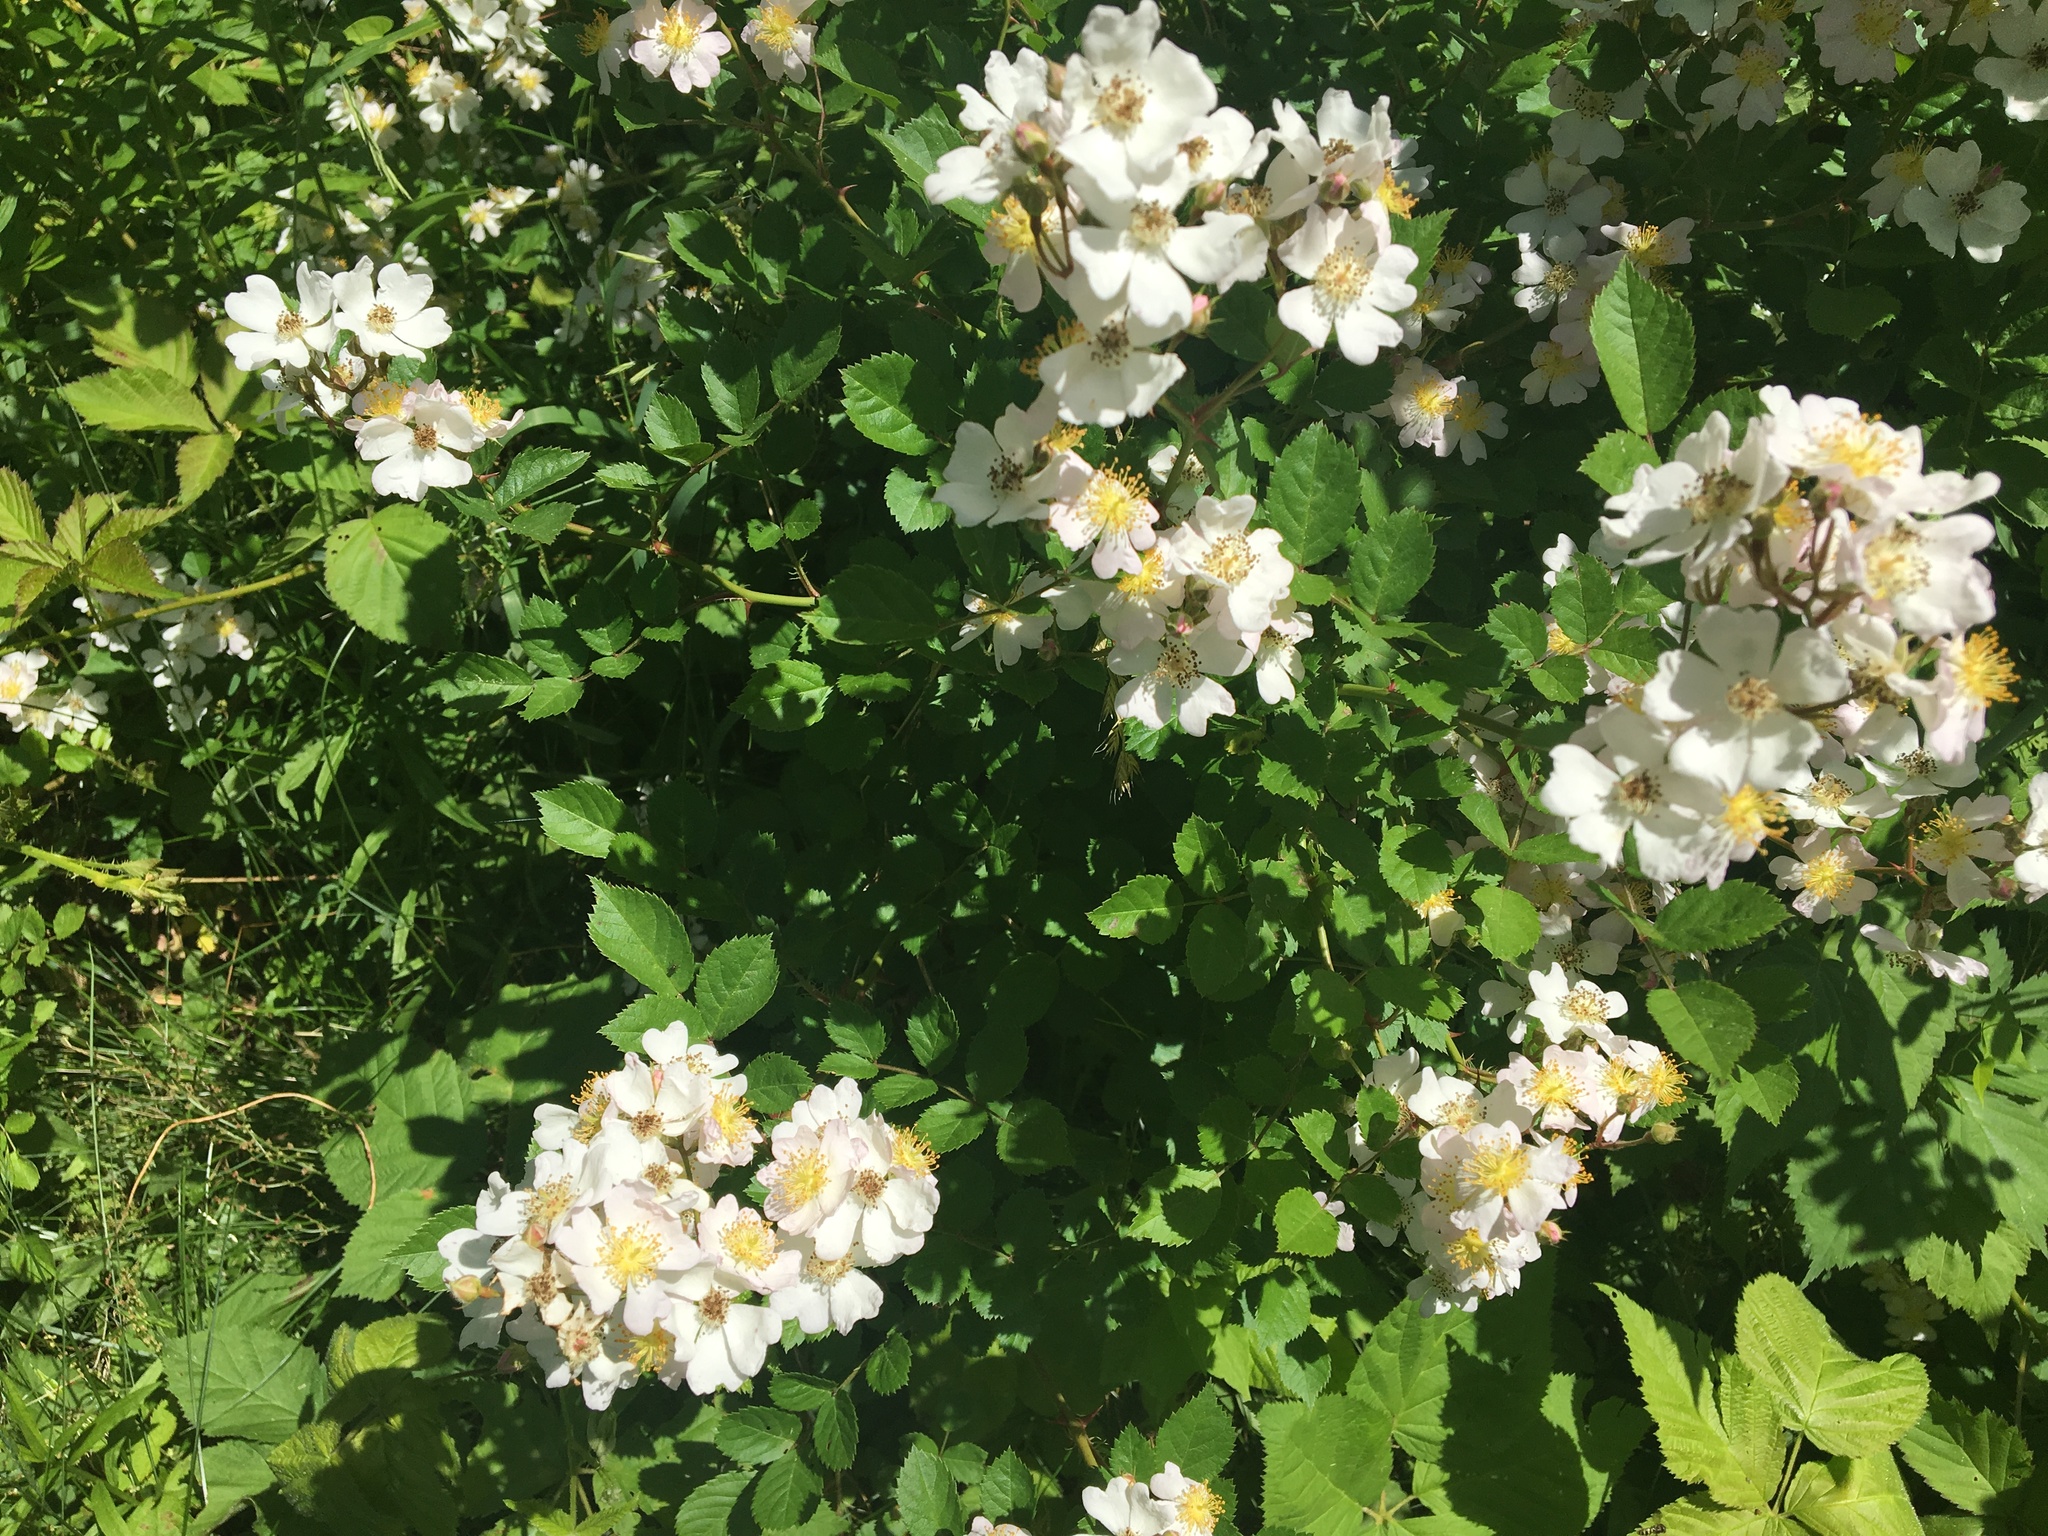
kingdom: Plantae
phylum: Tracheophyta
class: Magnoliopsida
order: Rosales
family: Rosaceae
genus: Rosa
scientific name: Rosa multiflora
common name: Multiflora rose
